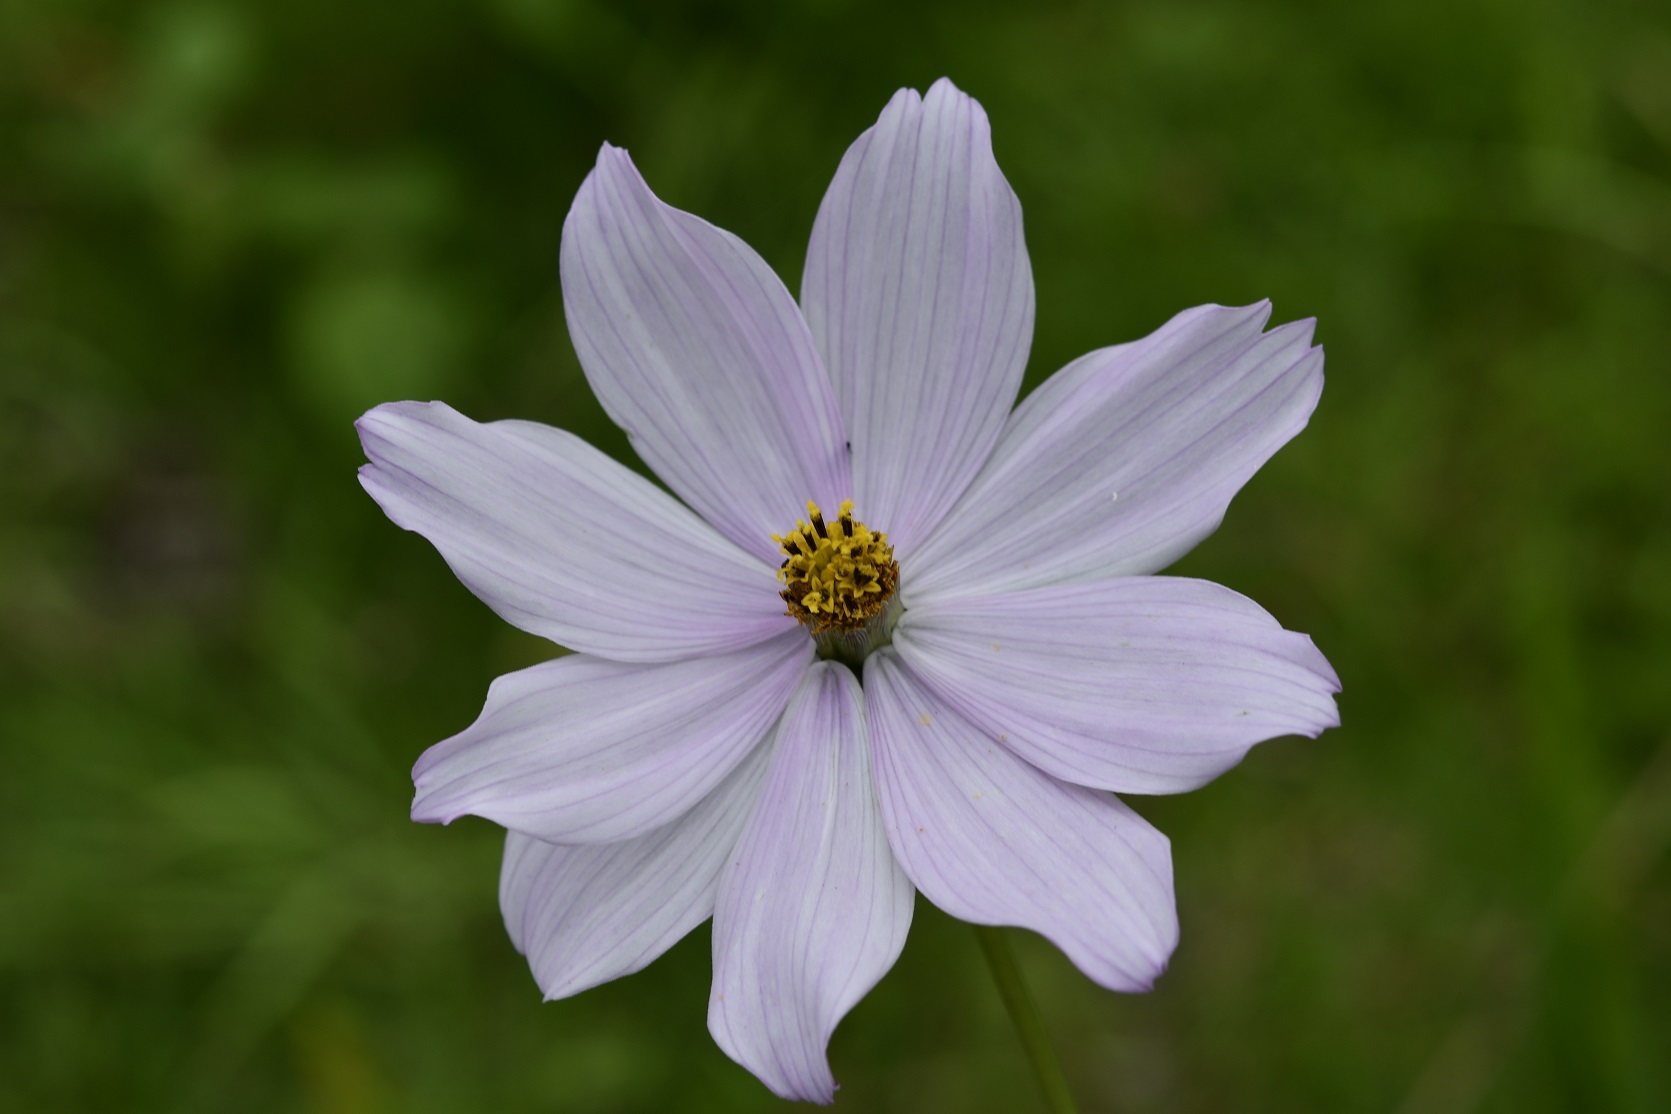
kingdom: Plantae
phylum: Tracheophyta
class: Magnoliopsida
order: Asterales
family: Asteraceae
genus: Cosmos
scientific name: Cosmos diversifolius
